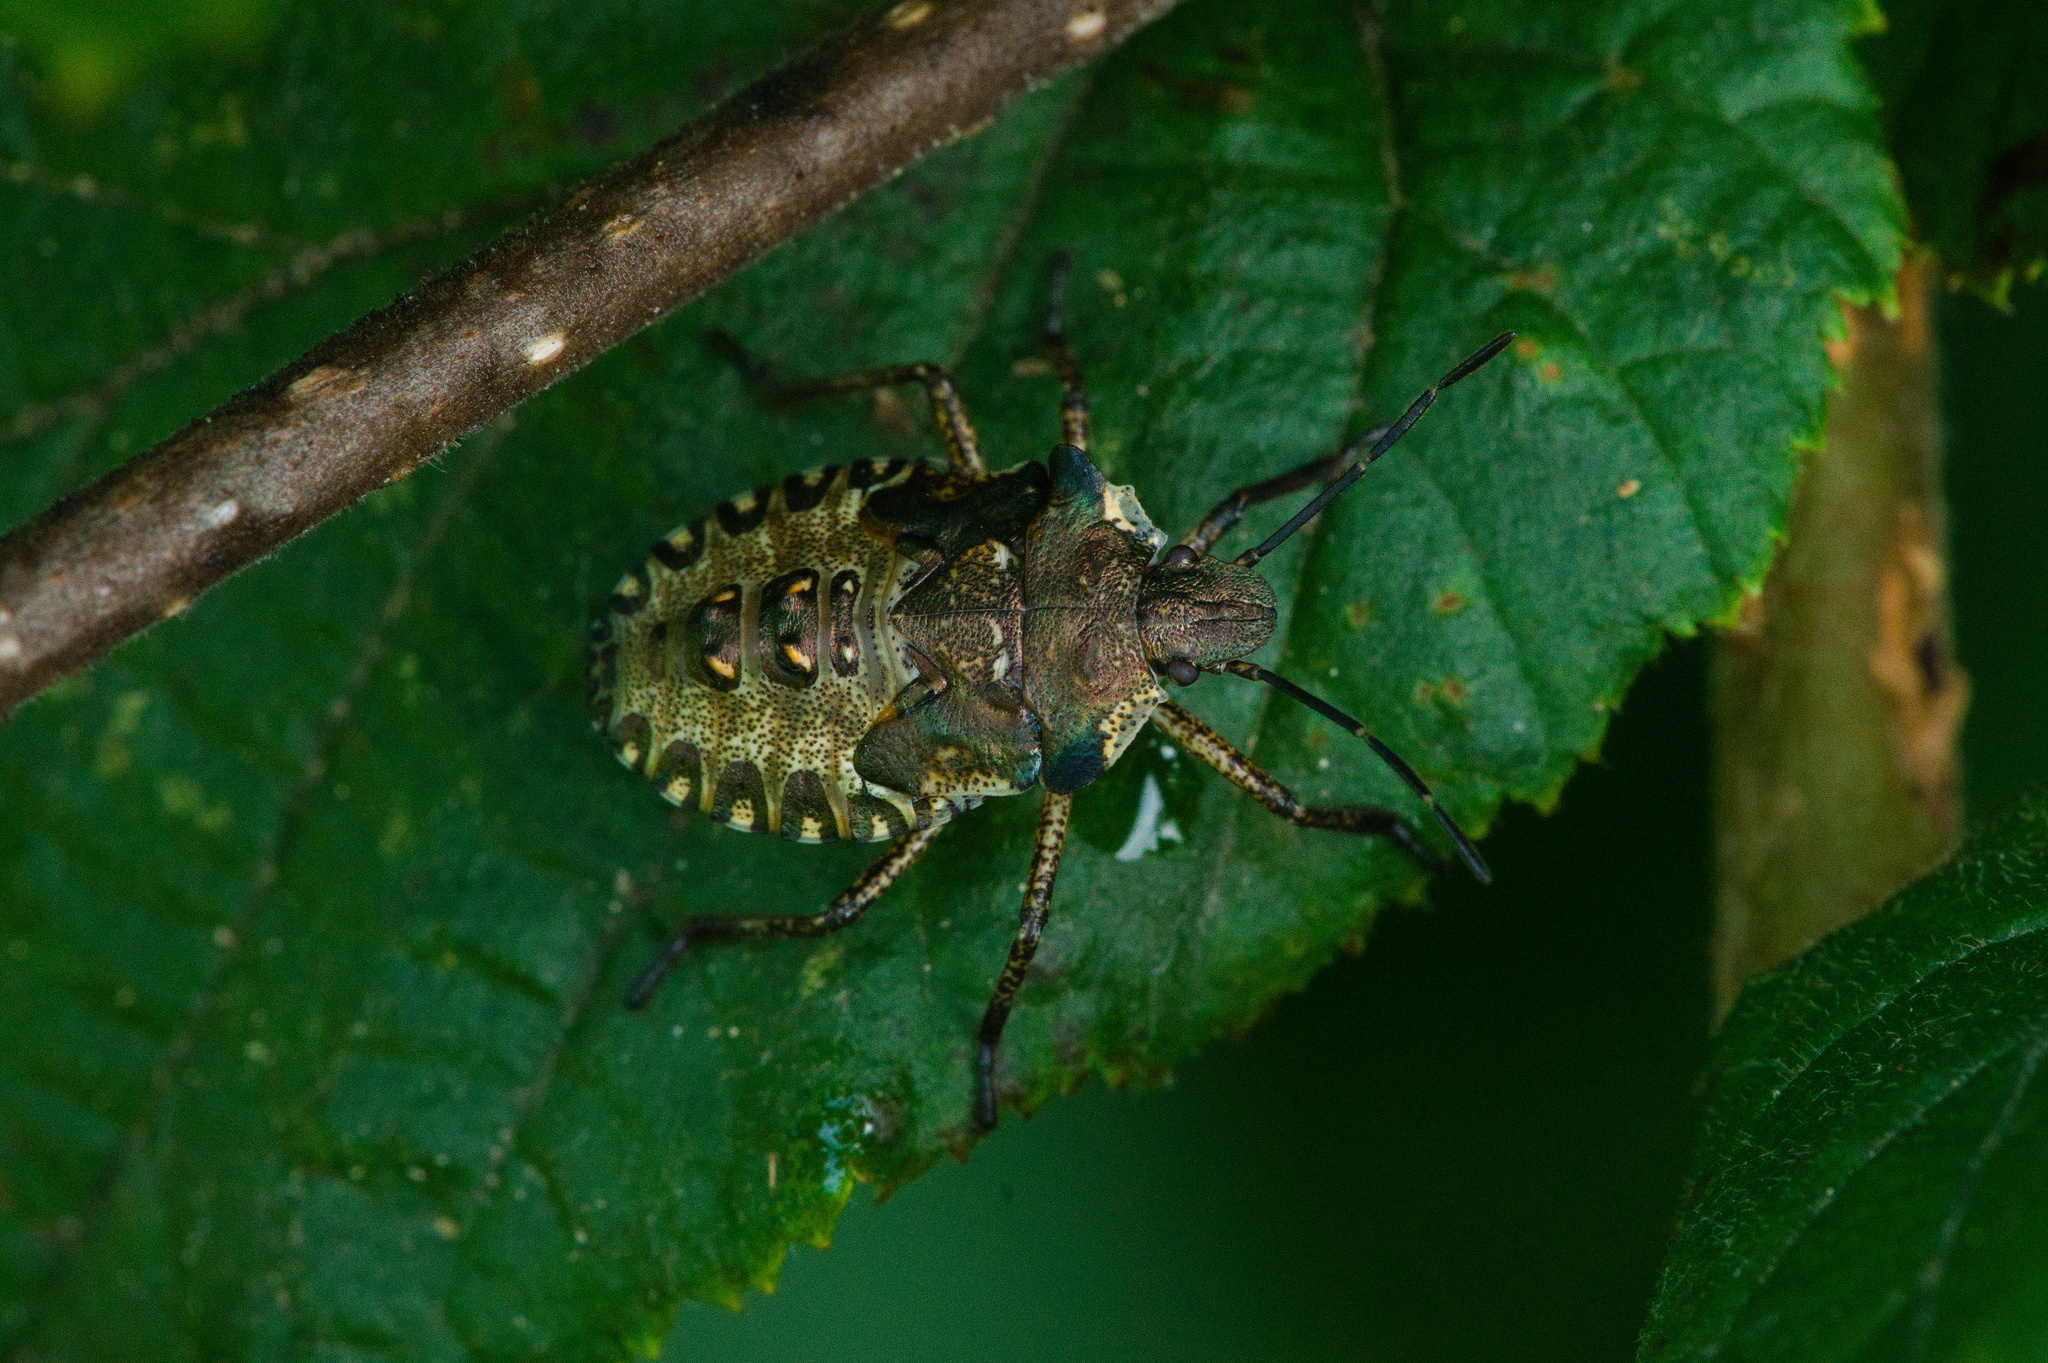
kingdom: Animalia
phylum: Arthropoda
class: Insecta
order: Hemiptera
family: Pentatomidae
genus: Pentatoma
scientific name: Pentatoma rufipes
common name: Forest bug
